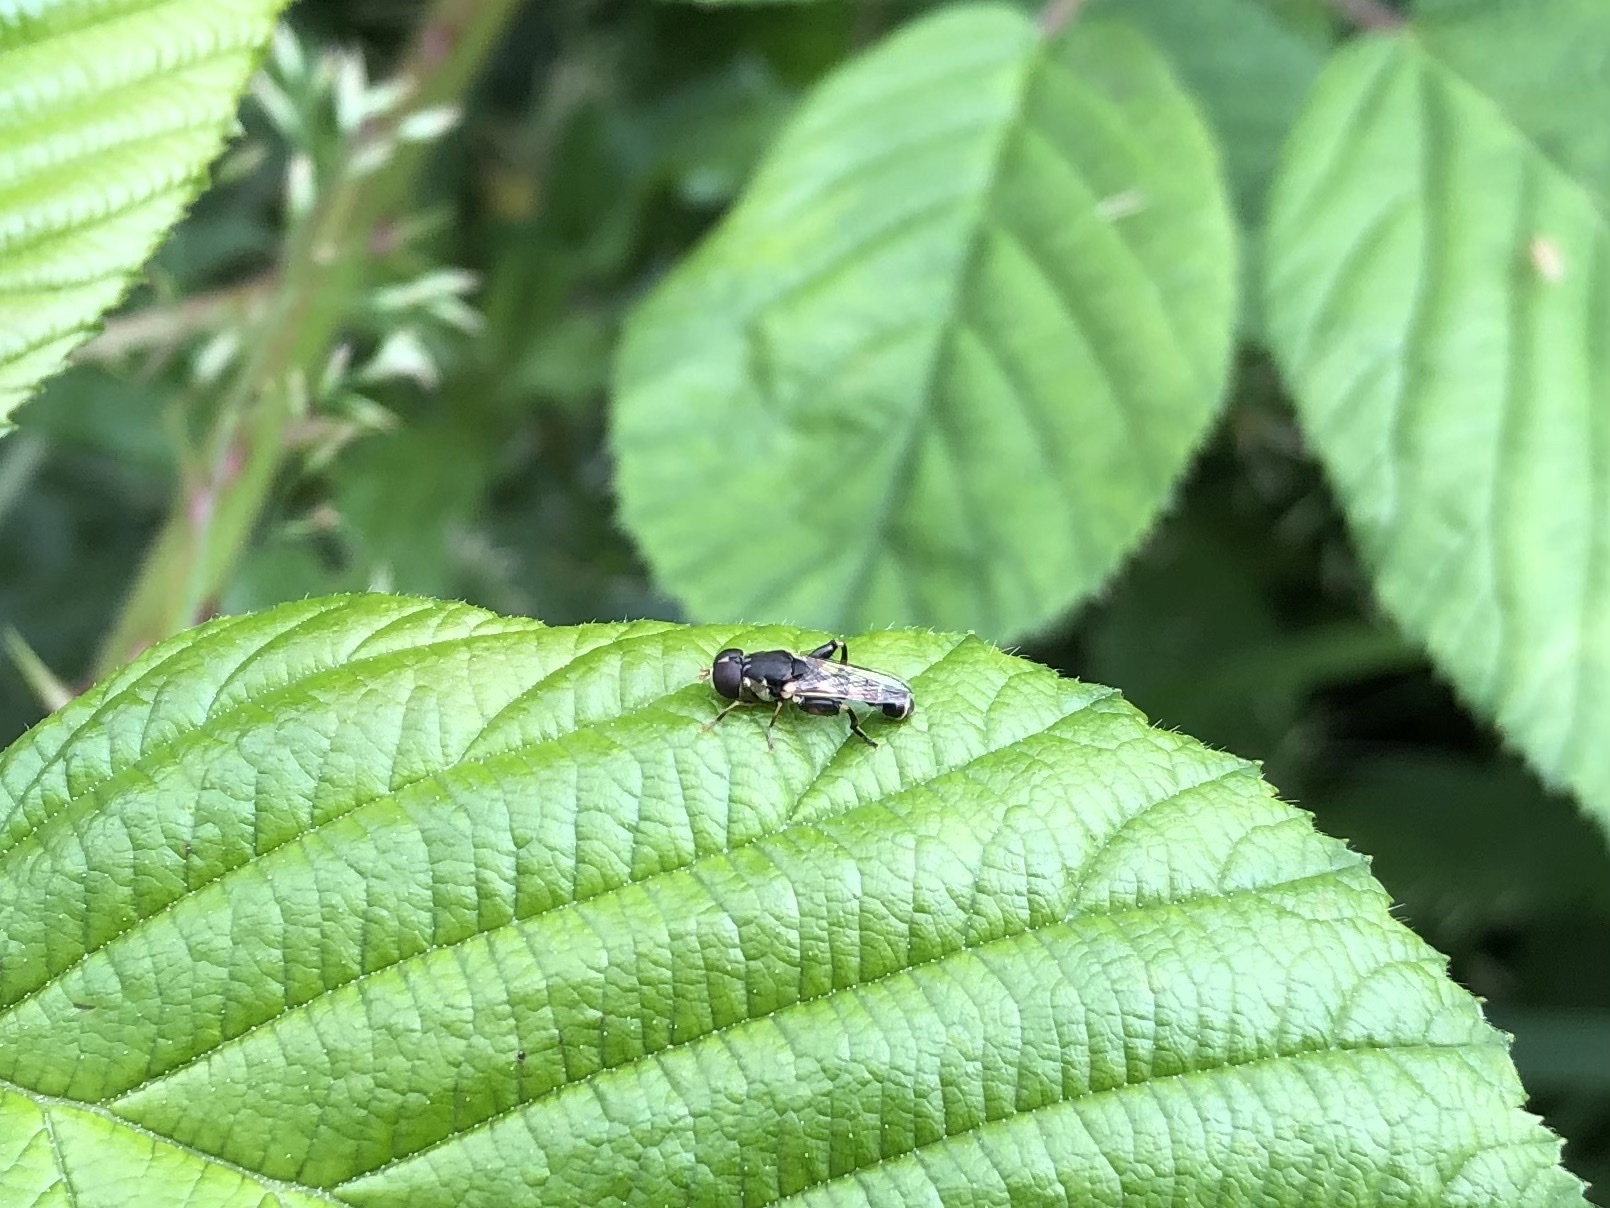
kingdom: Animalia
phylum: Arthropoda
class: Insecta
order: Diptera
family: Syrphidae
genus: Syritta
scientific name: Syritta pipiens
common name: Hover fly
